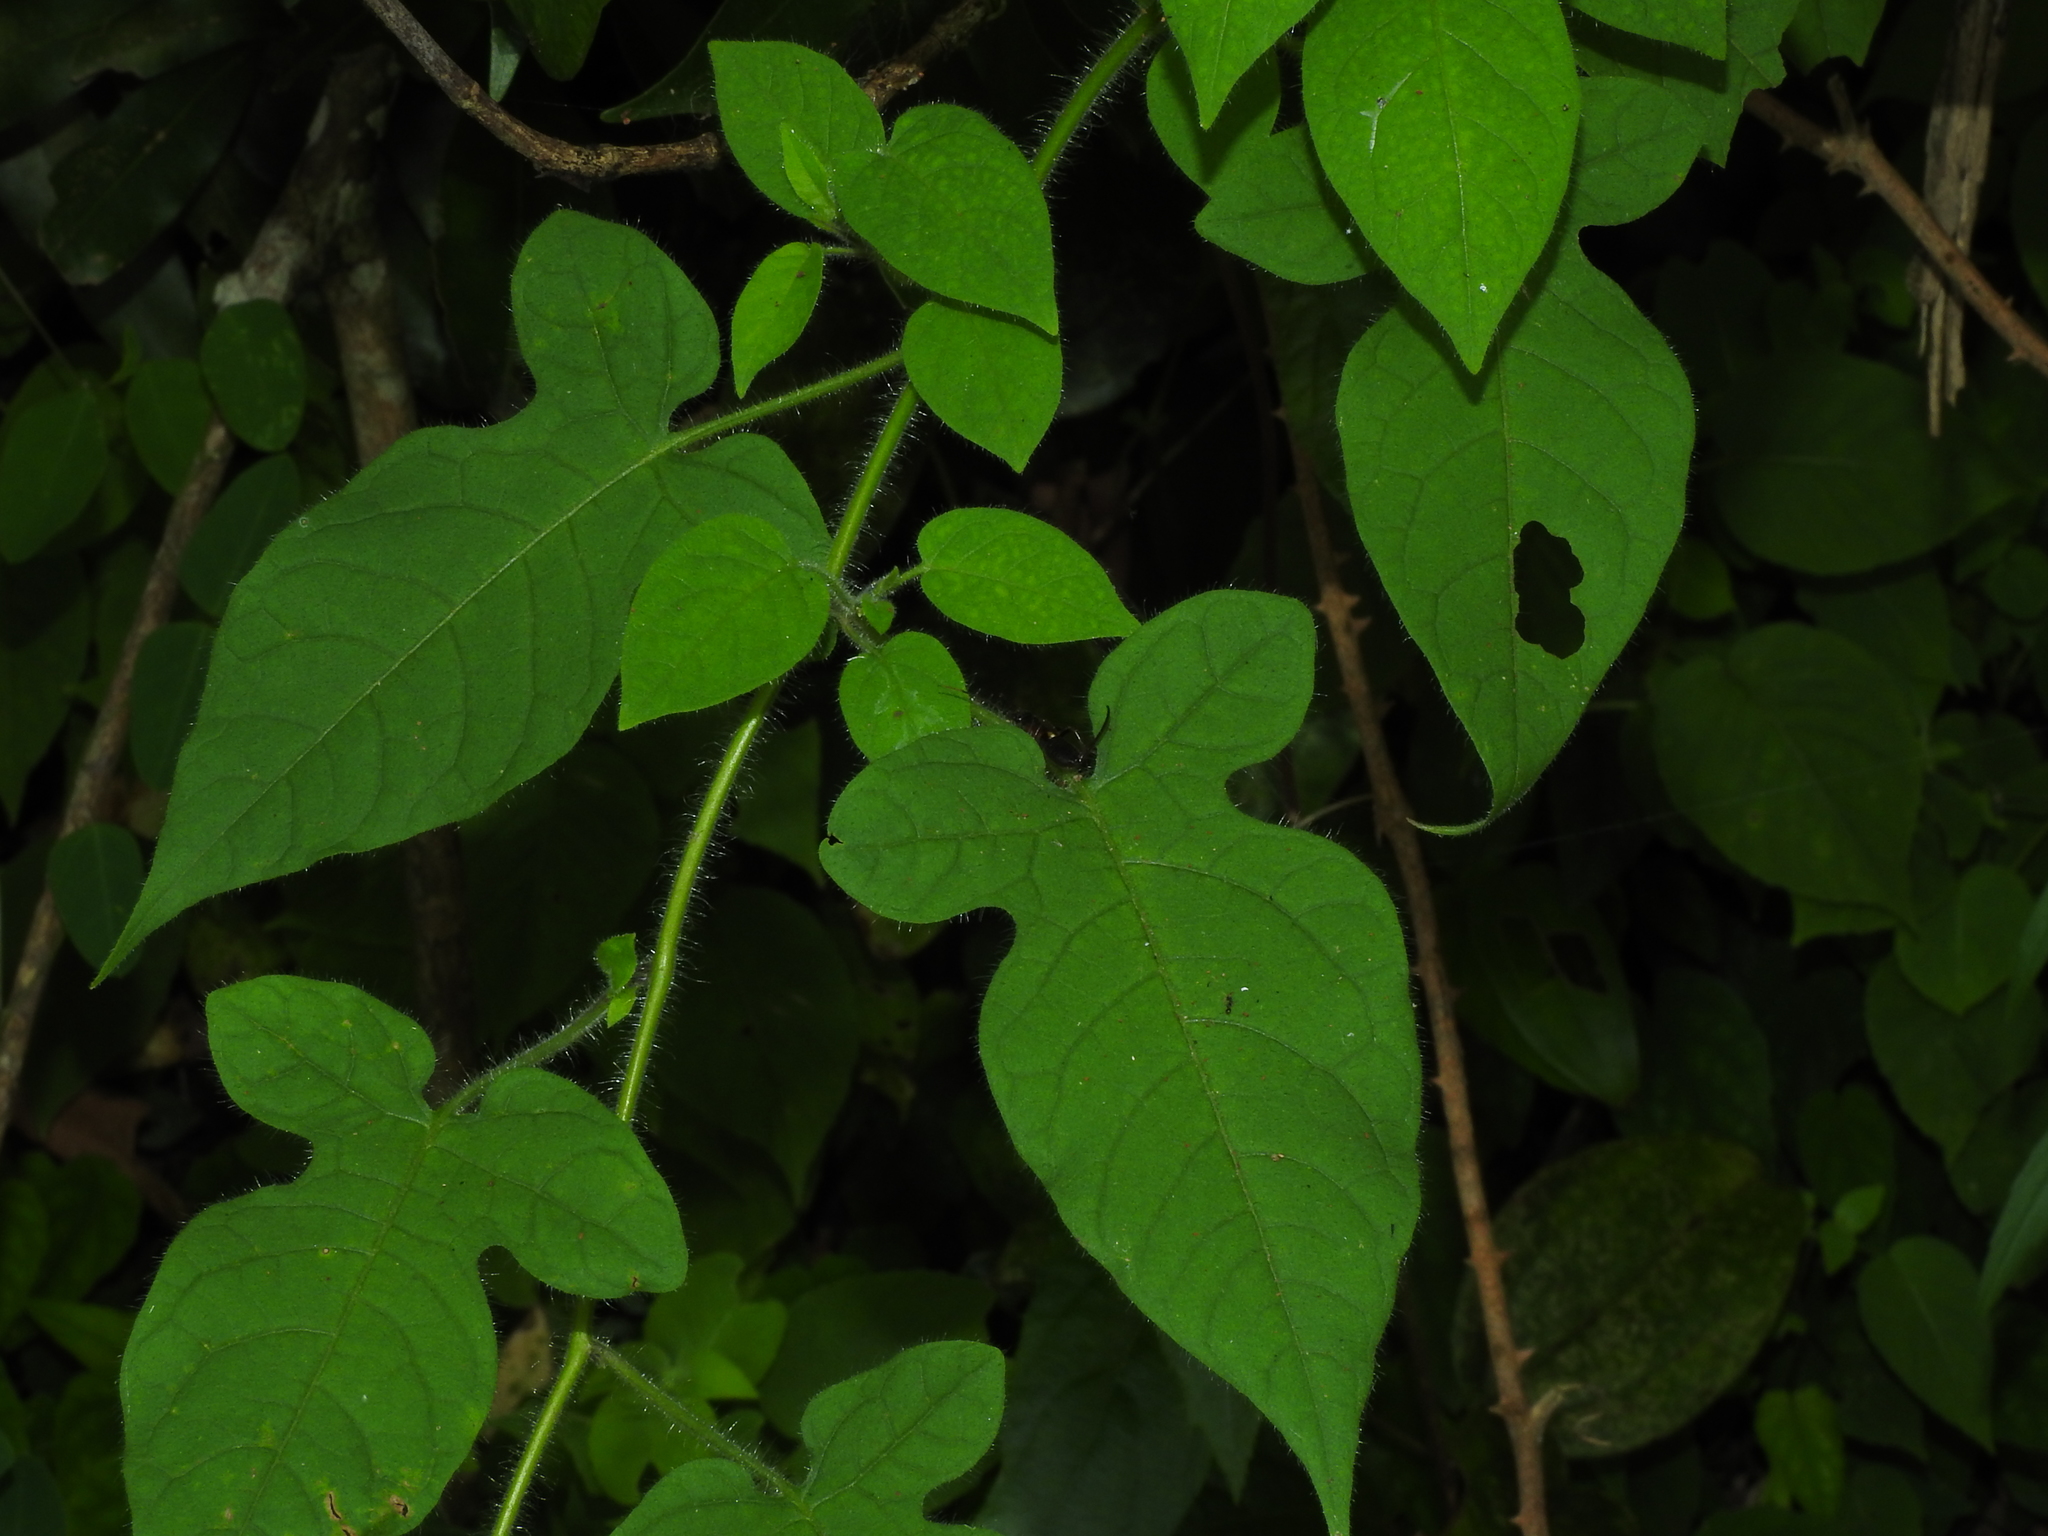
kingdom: Plantae
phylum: Tracheophyta
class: Magnoliopsida
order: Solanales
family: Solanaceae
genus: Solanum
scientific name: Solanum lyratum
